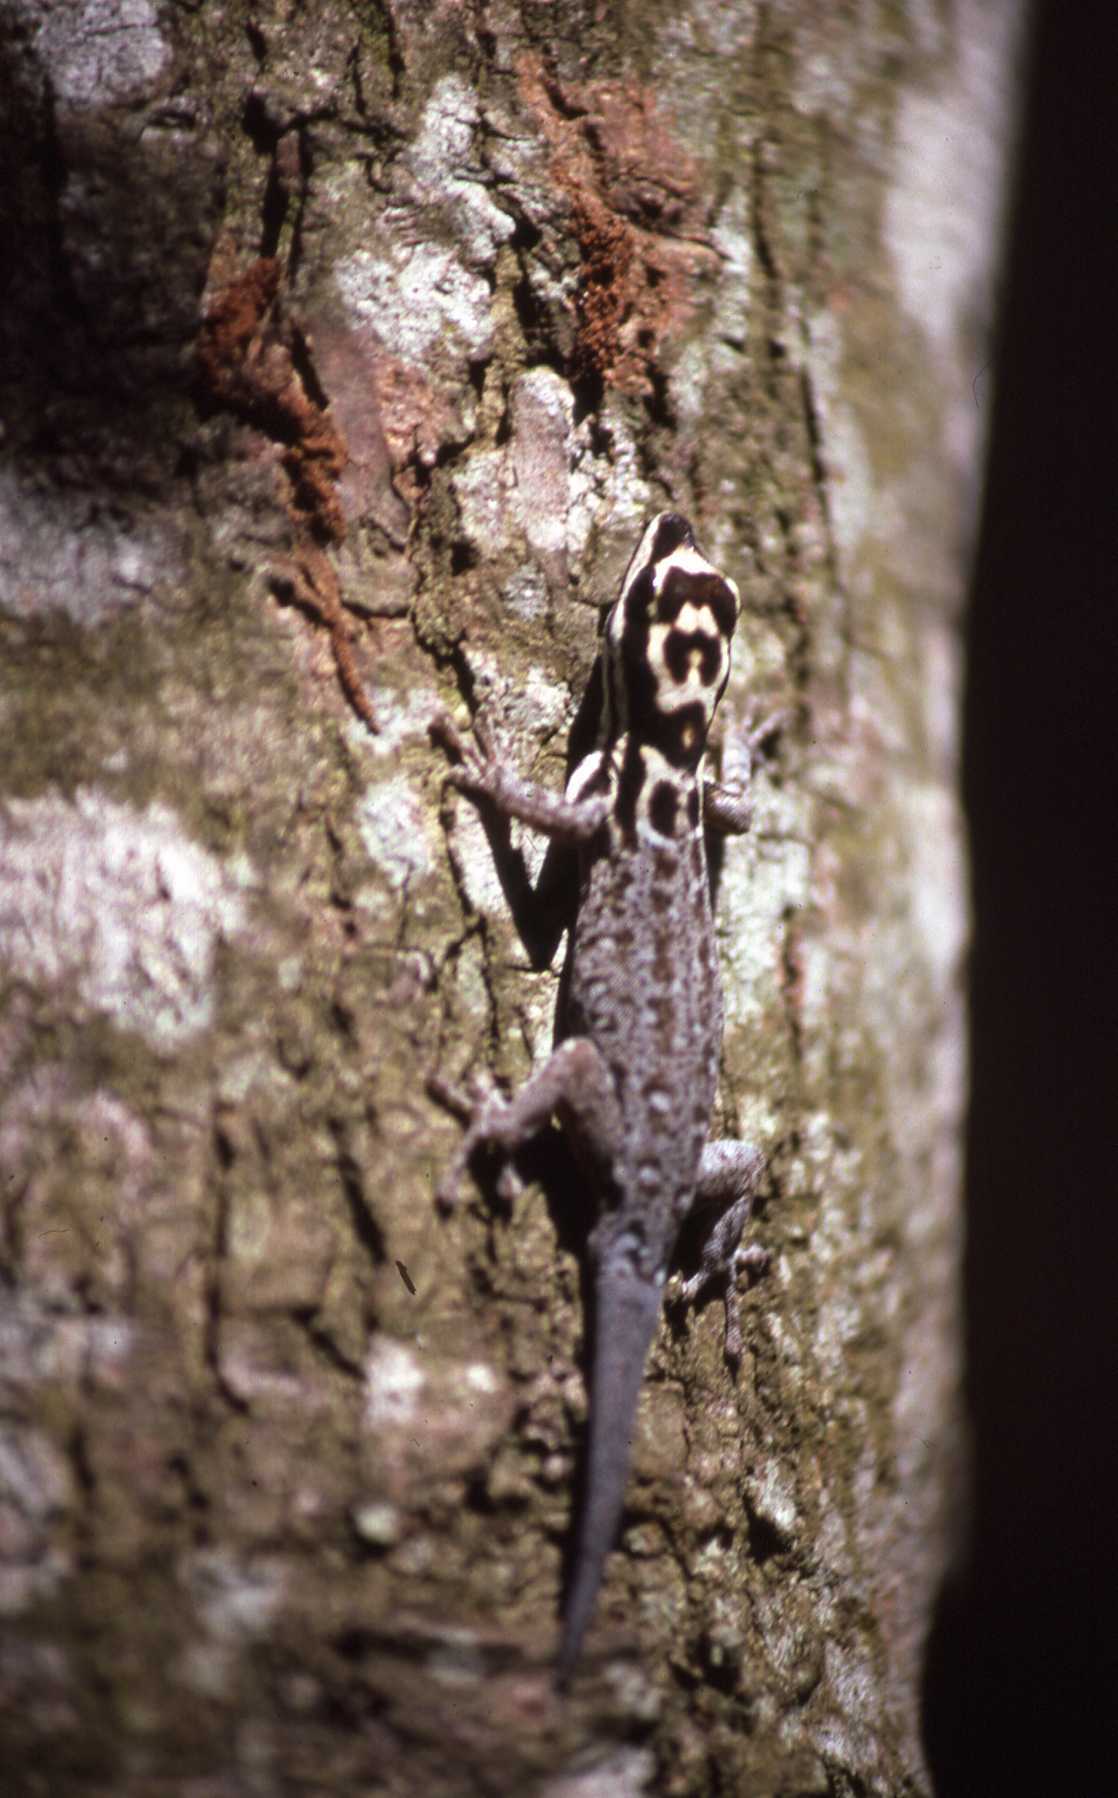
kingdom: Animalia
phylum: Chordata
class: Squamata
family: Gekkonidae
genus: Lygodactylus
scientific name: Lygodactylus mombasicus
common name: White-headed dwarf gecko
